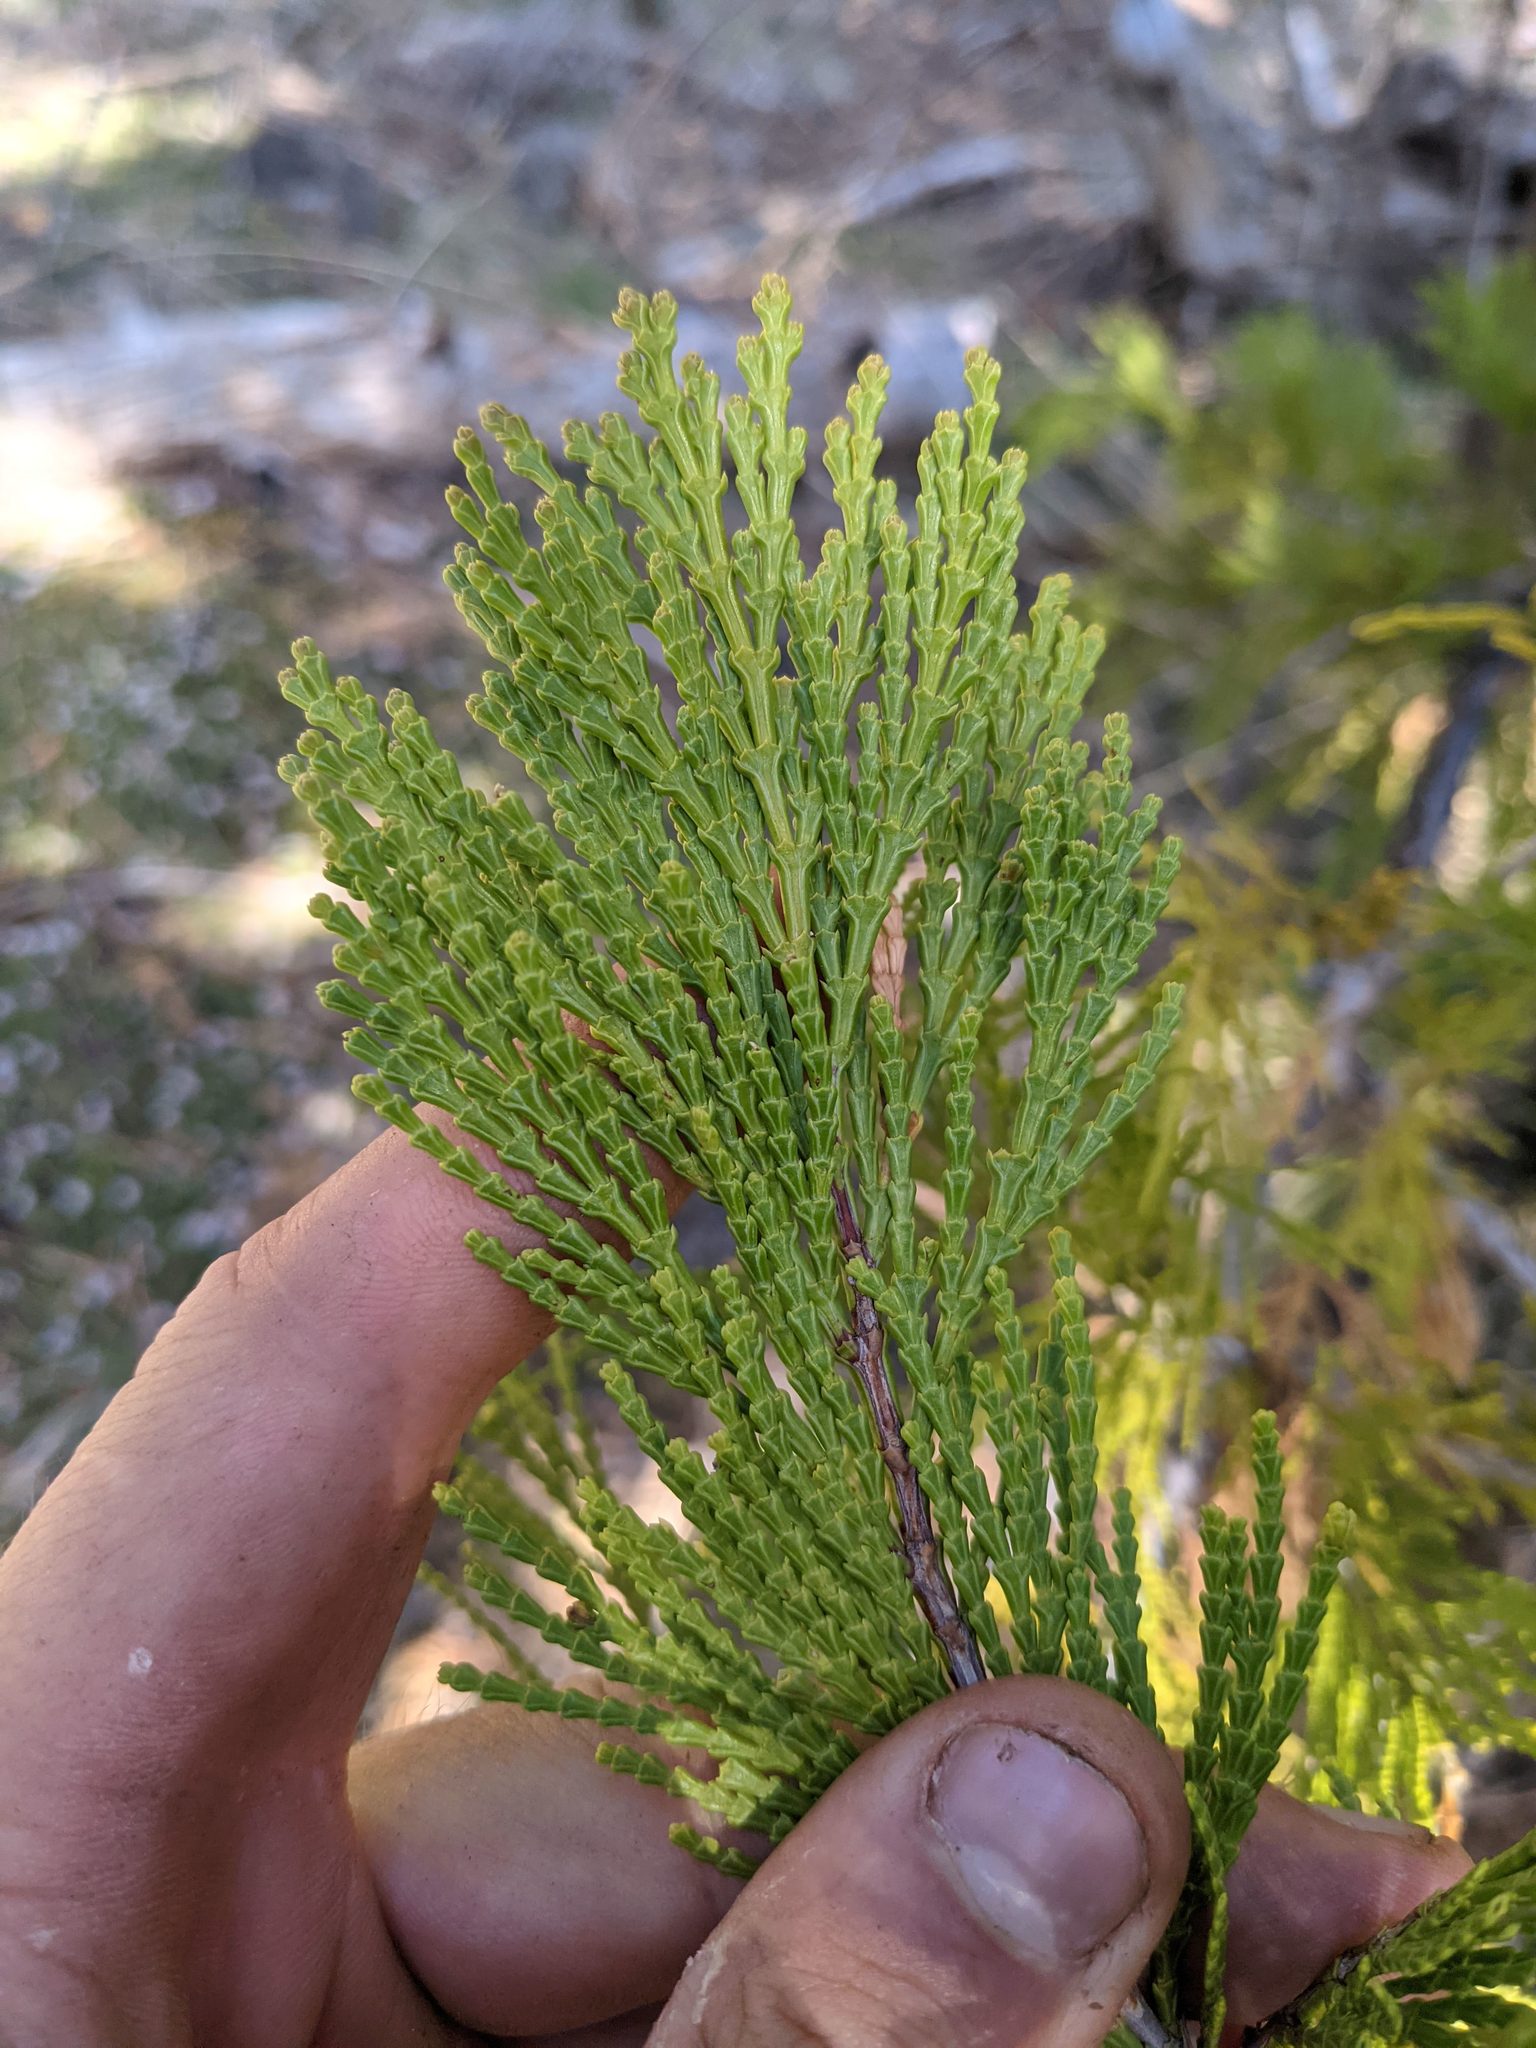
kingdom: Plantae
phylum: Tracheophyta
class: Pinopsida
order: Pinales
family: Cupressaceae
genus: Calocedrus
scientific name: Calocedrus decurrens
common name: Californian incense-cedar
